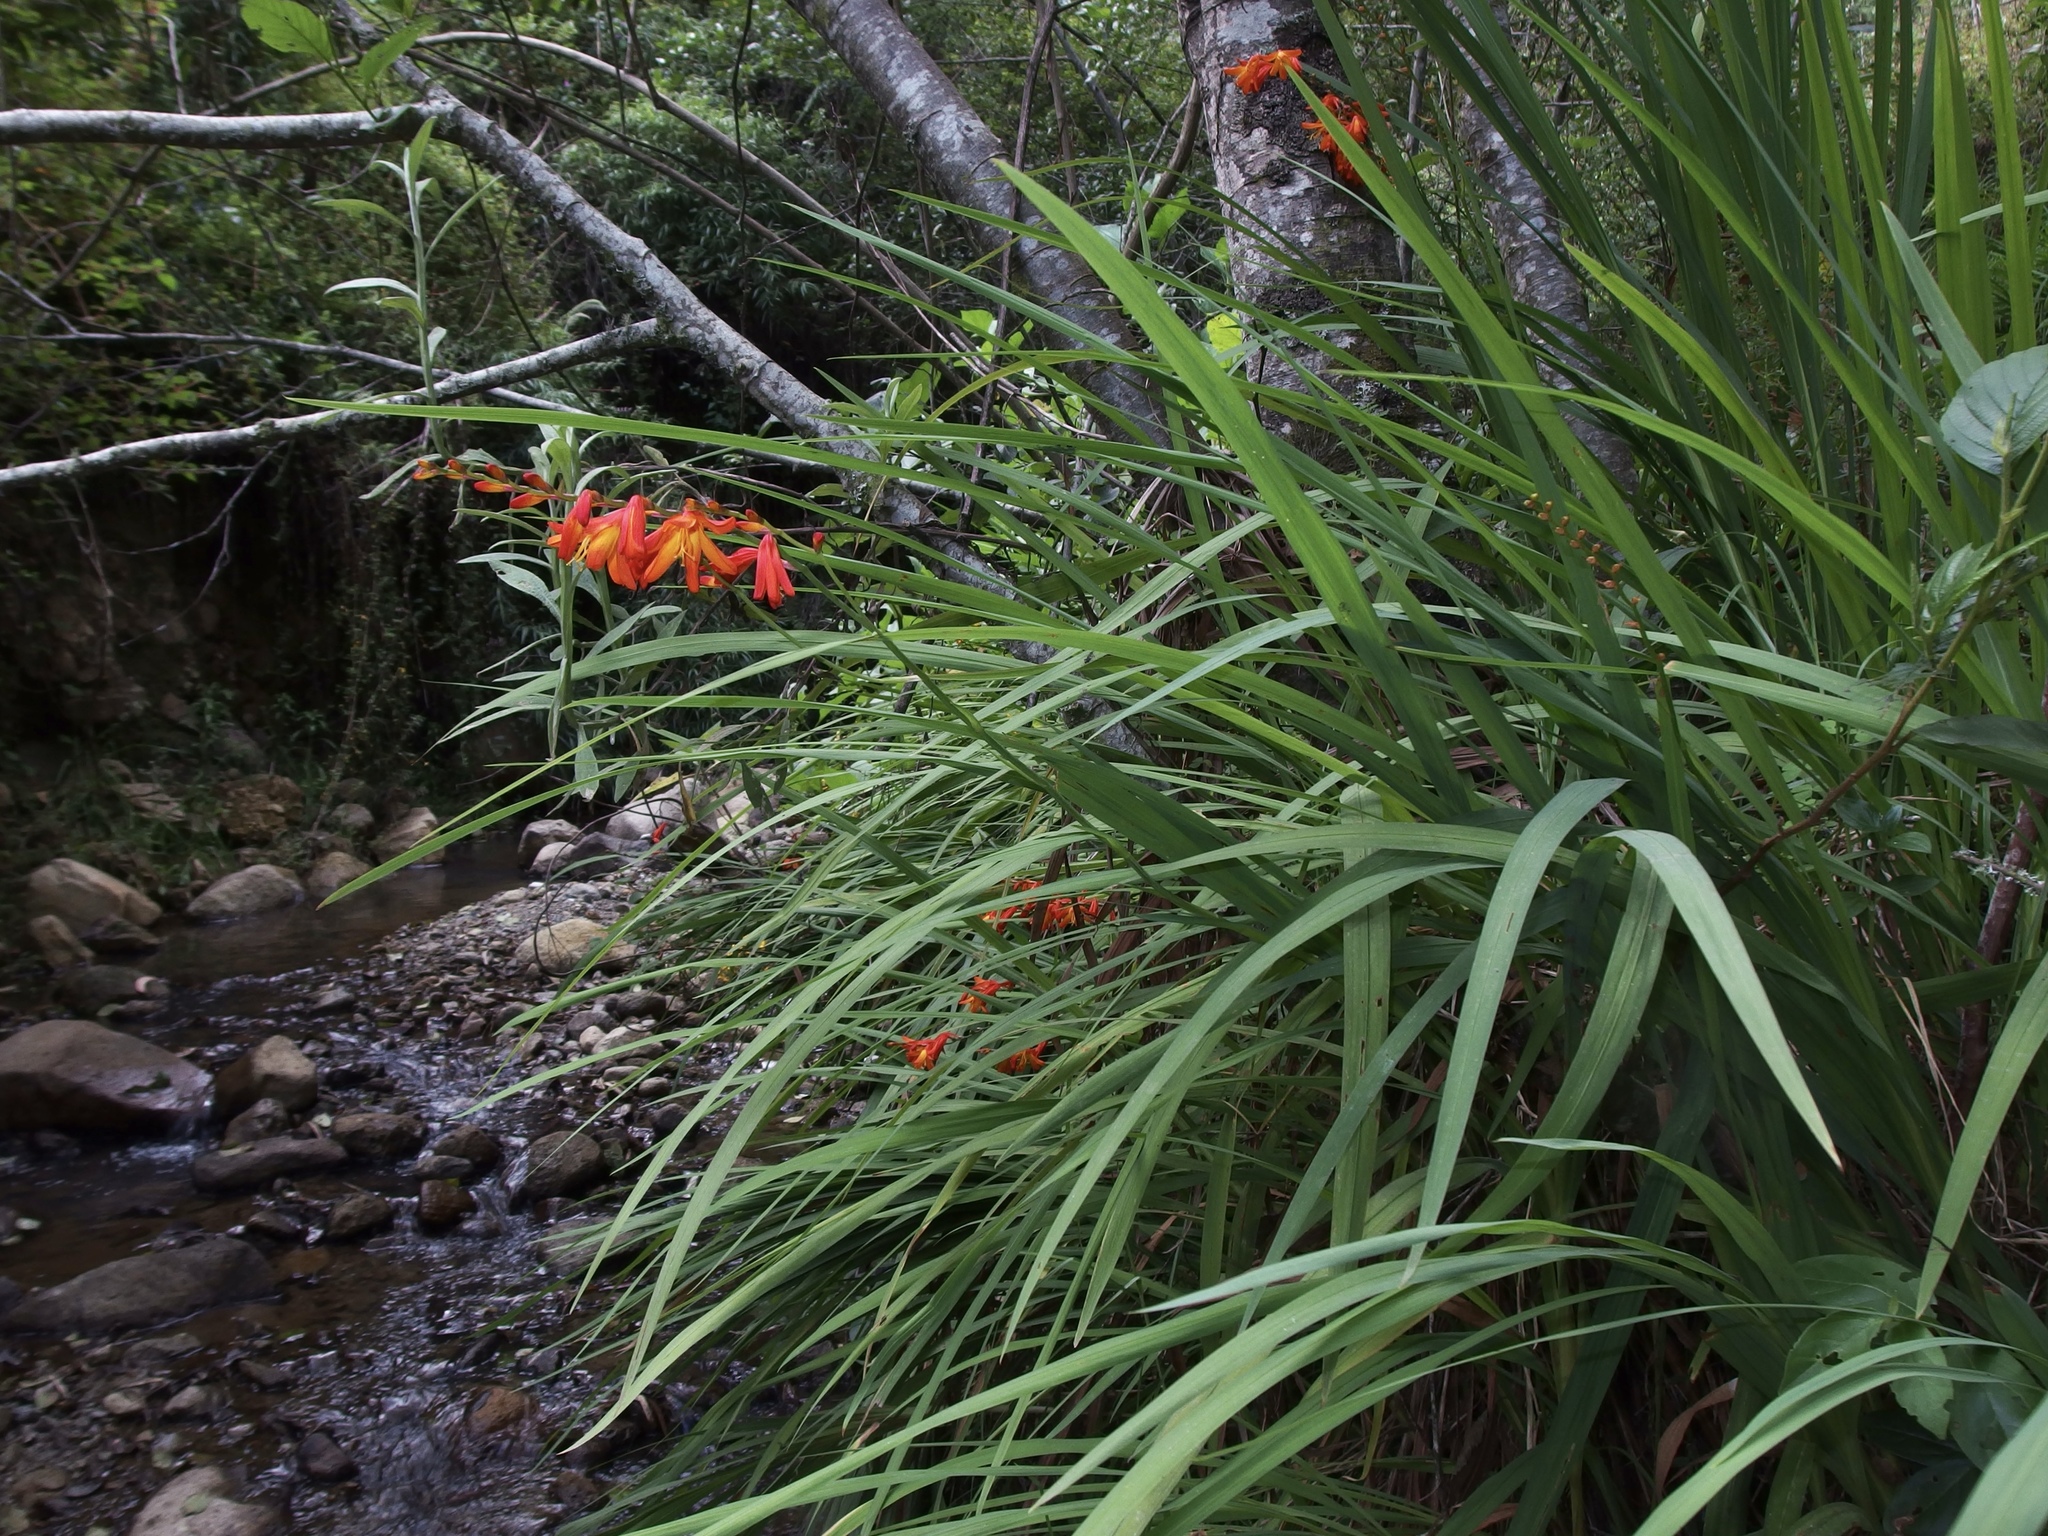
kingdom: Plantae
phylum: Tracheophyta
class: Liliopsida
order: Asparagales
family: Iridaceae
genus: Crocosmia
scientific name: Crocosmia crocosmiiflora
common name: Montbretia
